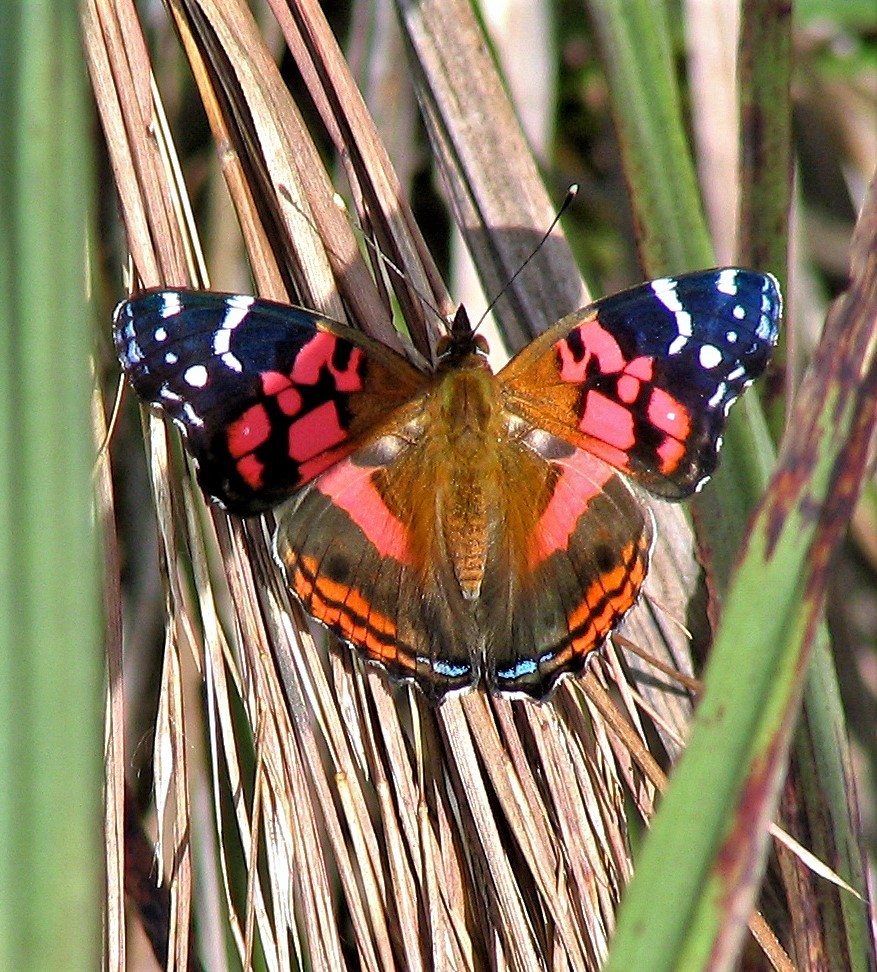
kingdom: Animalia
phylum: Arthropoda
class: Insecta
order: Lepidoptera
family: Nymphalidae
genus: Vanessa
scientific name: Vanessa myrinna
